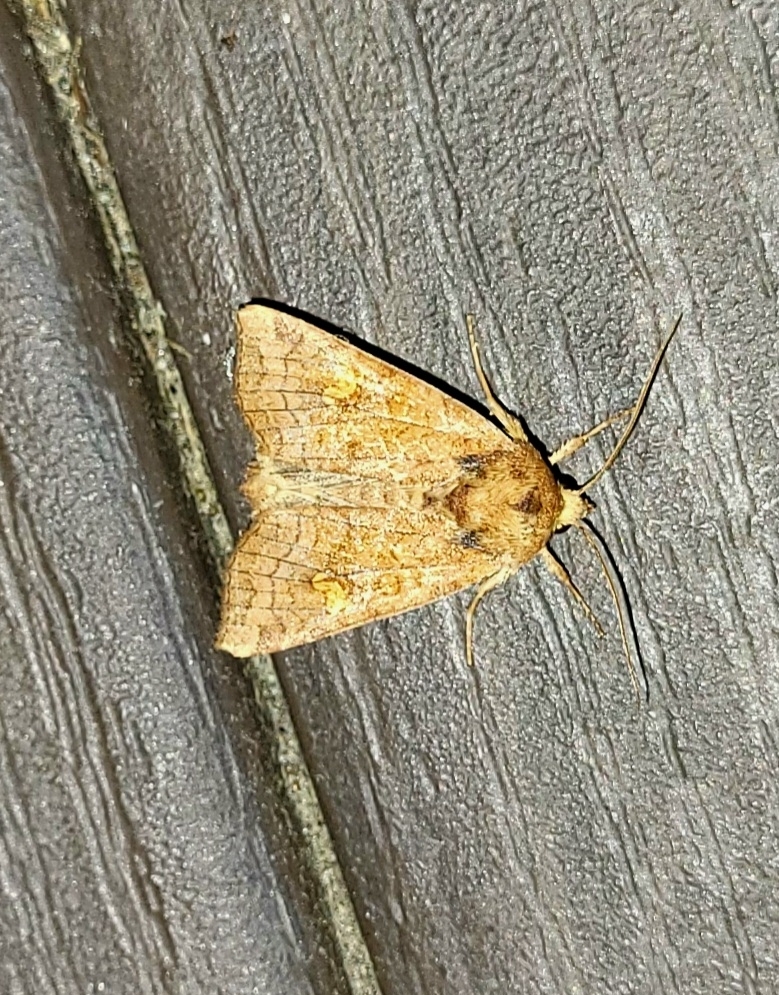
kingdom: Animalia
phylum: Arthropoda
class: Insecta
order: Lepidoptera
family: Noctuidae
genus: Amphipoea
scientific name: Amphipoea
